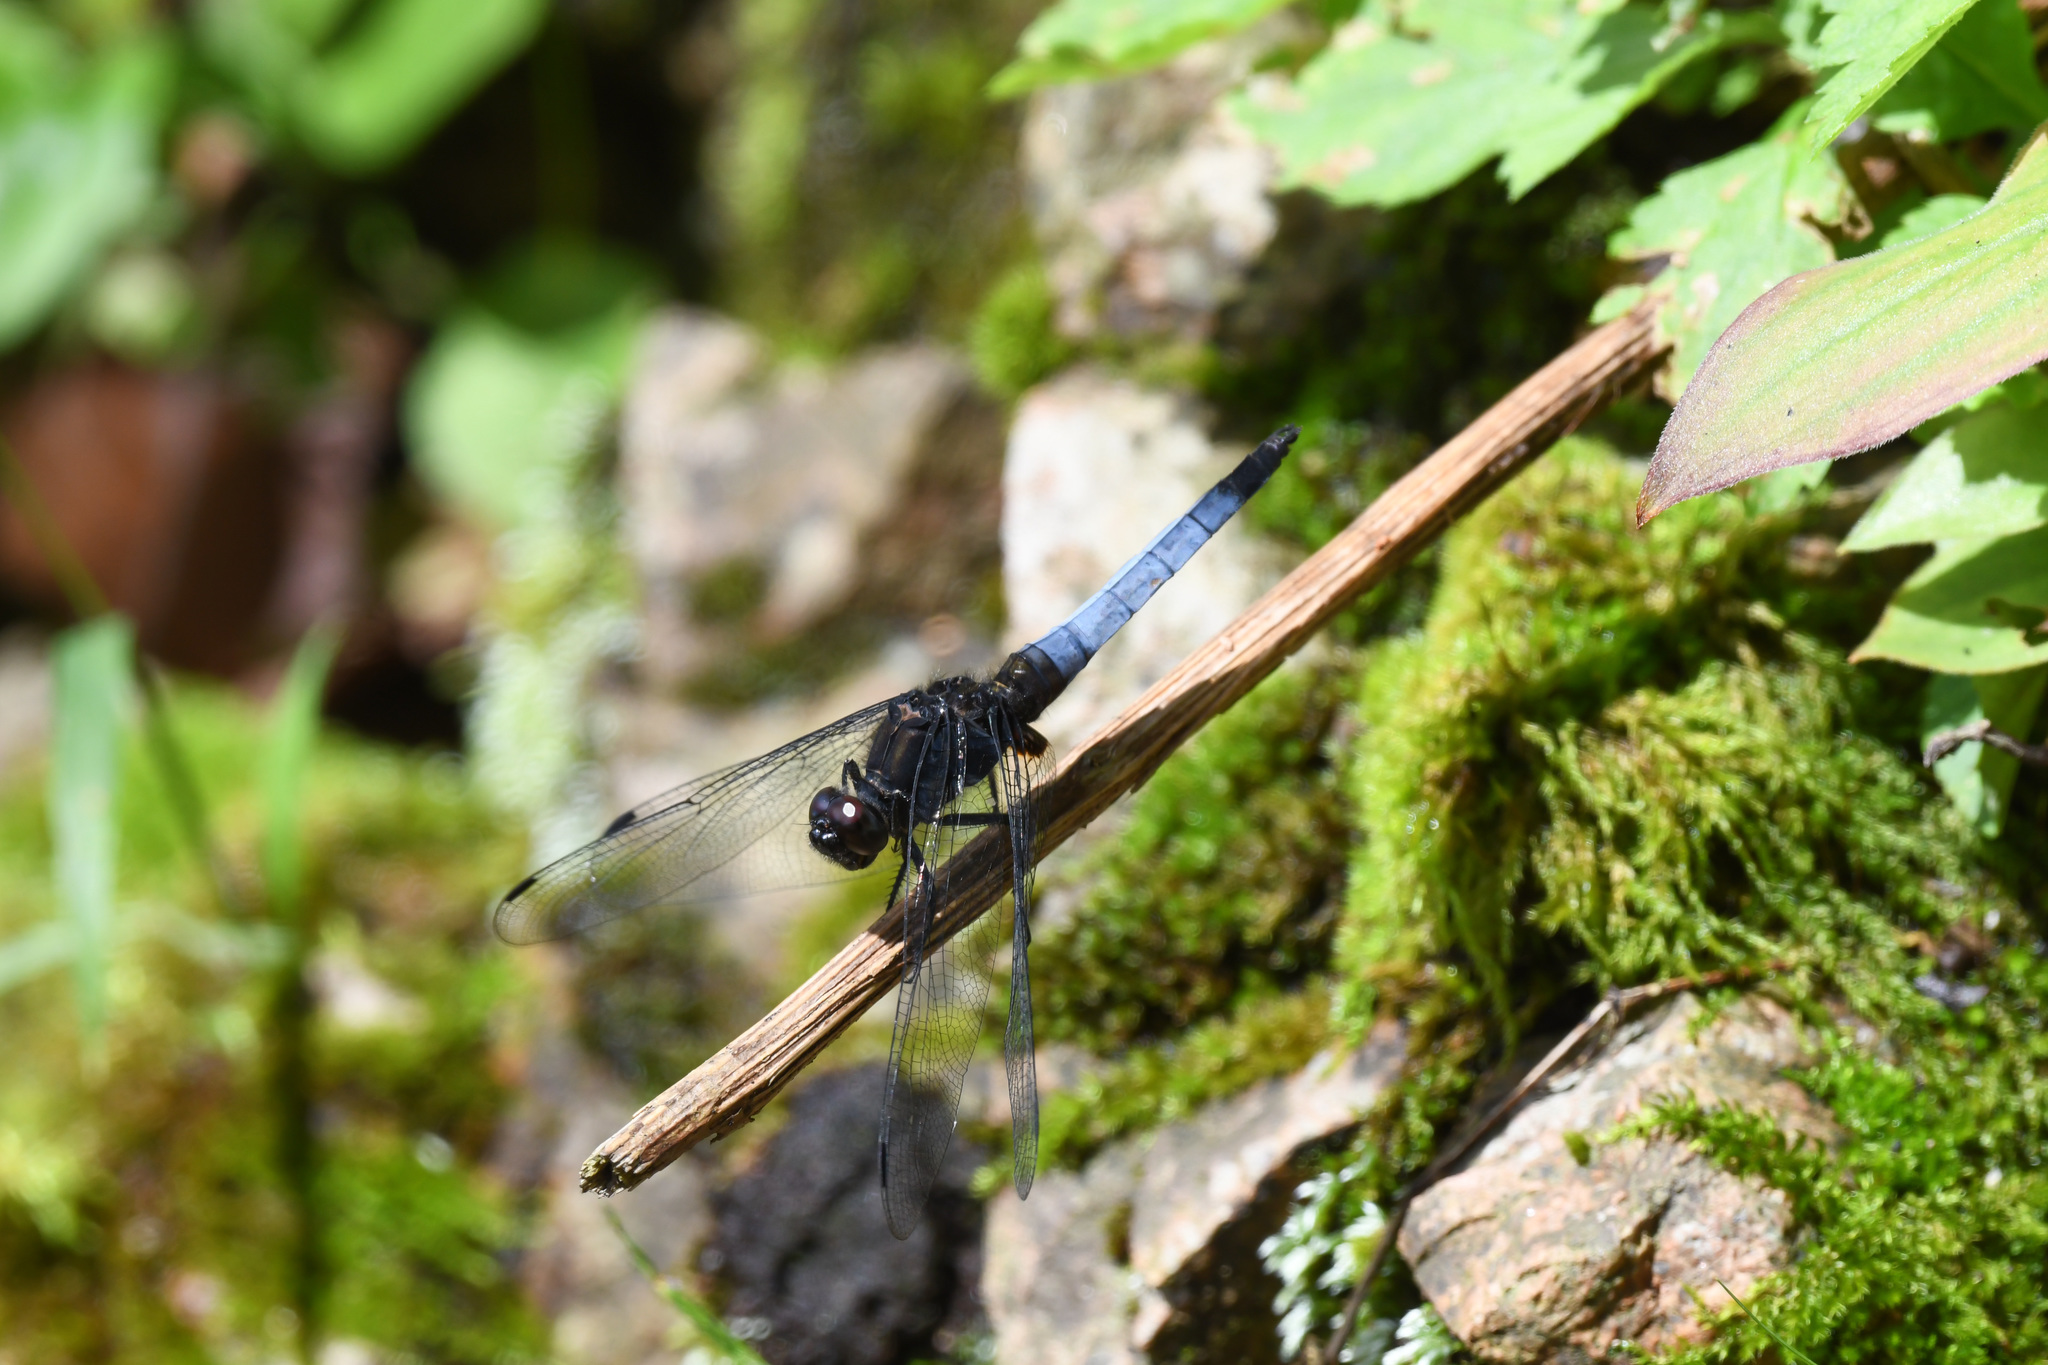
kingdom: Animalia
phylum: Arthropoda
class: Insecta
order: Odonata
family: Libellulidae
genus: Orthetrum
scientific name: Orthetrum triangulare
